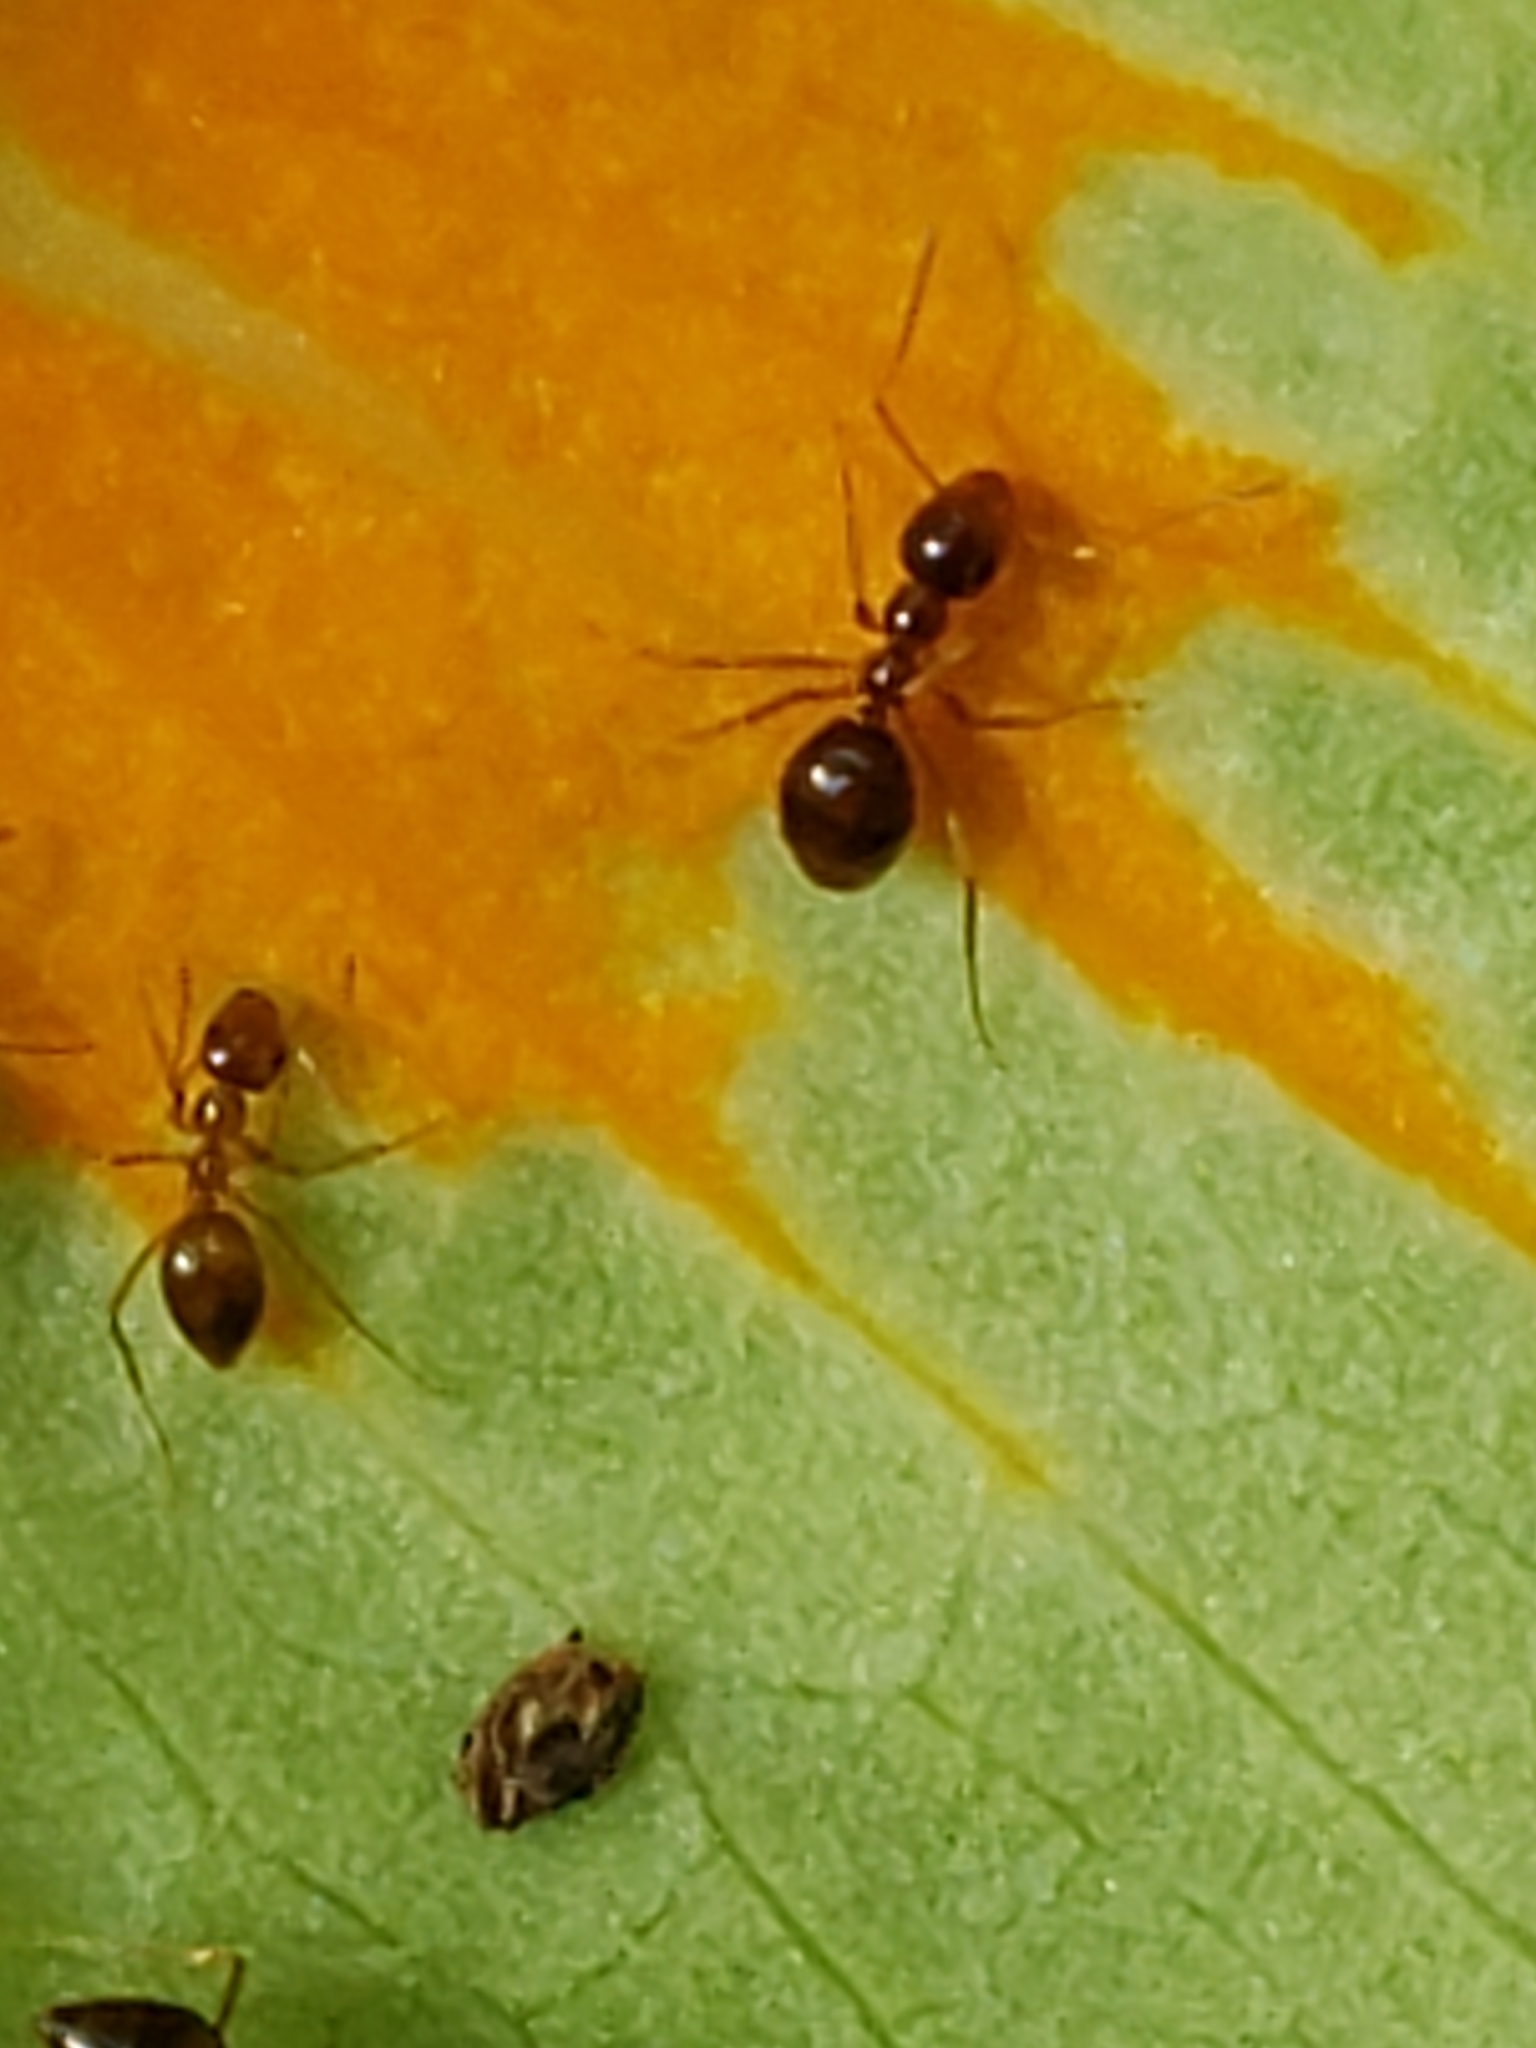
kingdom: Animalia
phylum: Arthropoda
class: Insecta
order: Hymenoptera
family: Formicidae
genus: Prenolepis
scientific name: Prenolepis imparis
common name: Small honey ant
